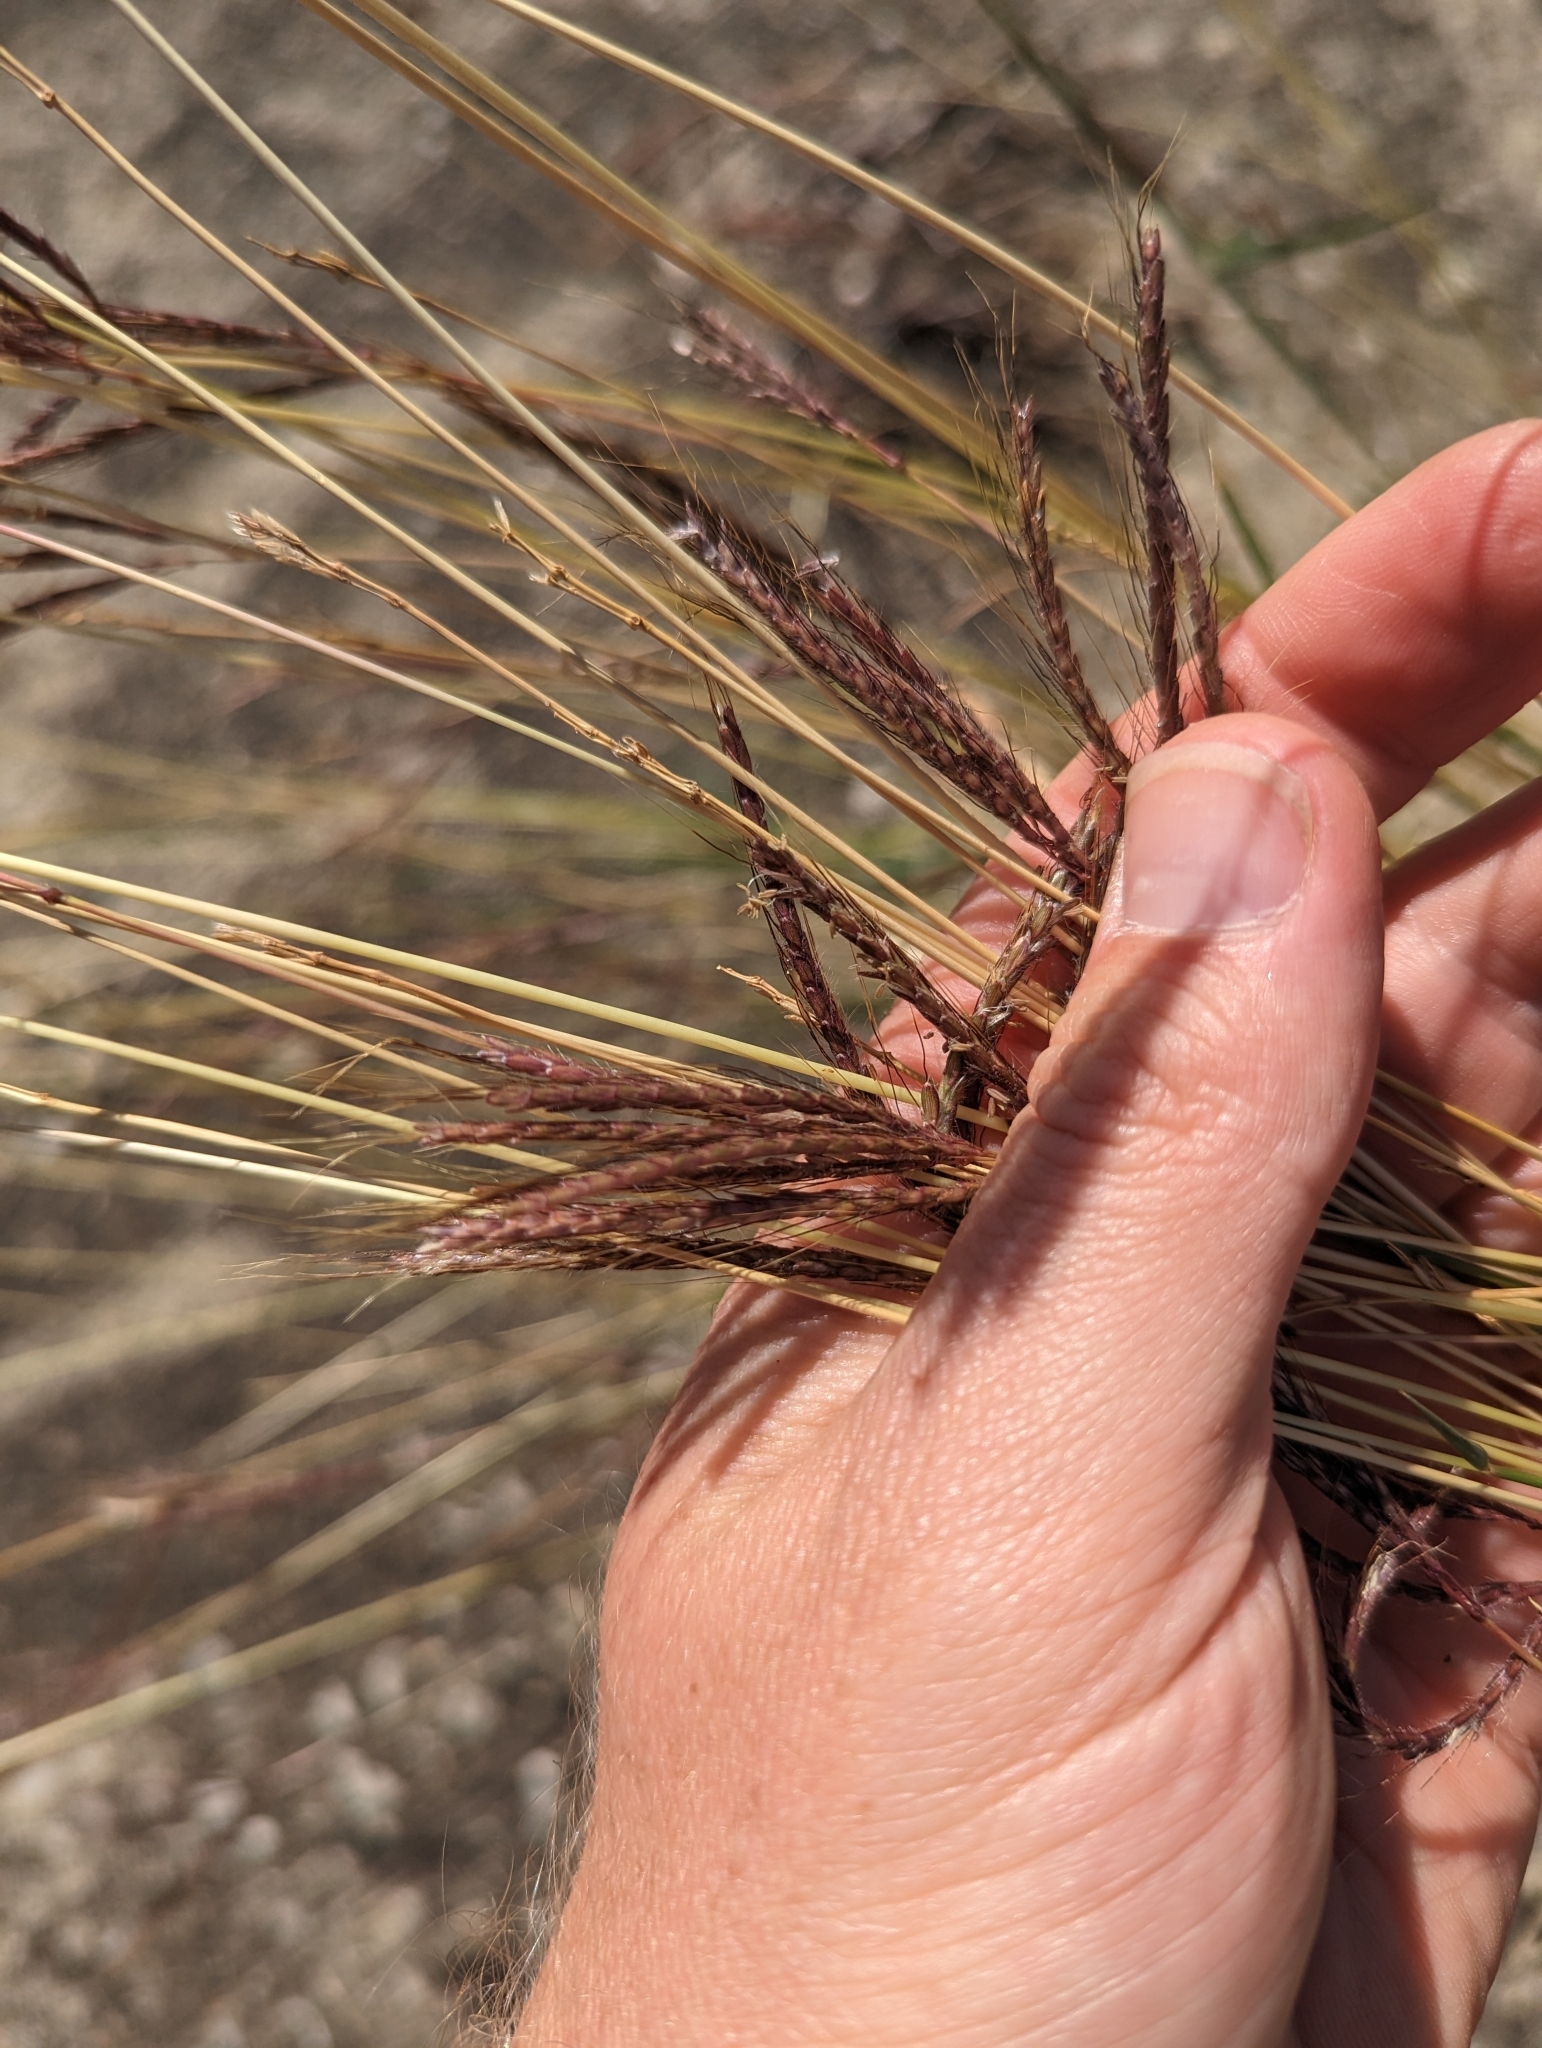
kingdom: Plantae
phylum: Tracheophyta
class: Liliopsida
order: Poales
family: Poaceae
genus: Dichanthium
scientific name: Dichanthium annulatum
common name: Kleberg's bluestem
